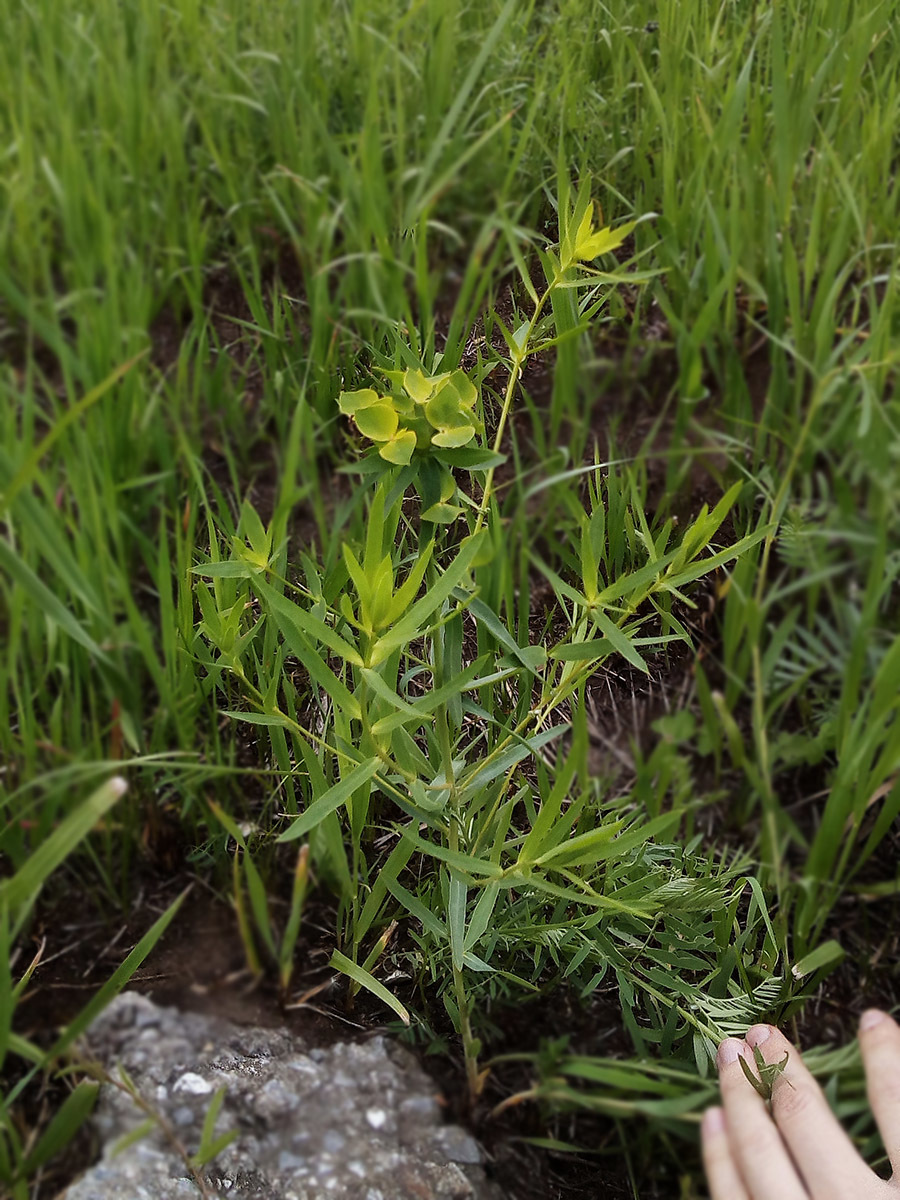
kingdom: Plantae
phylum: Tracheophyta
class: Magnoliopsida
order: Malpighiales
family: Euphorbiaceae
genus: Euphorbia
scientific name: Euphorbia virgata
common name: Leafy spurge
